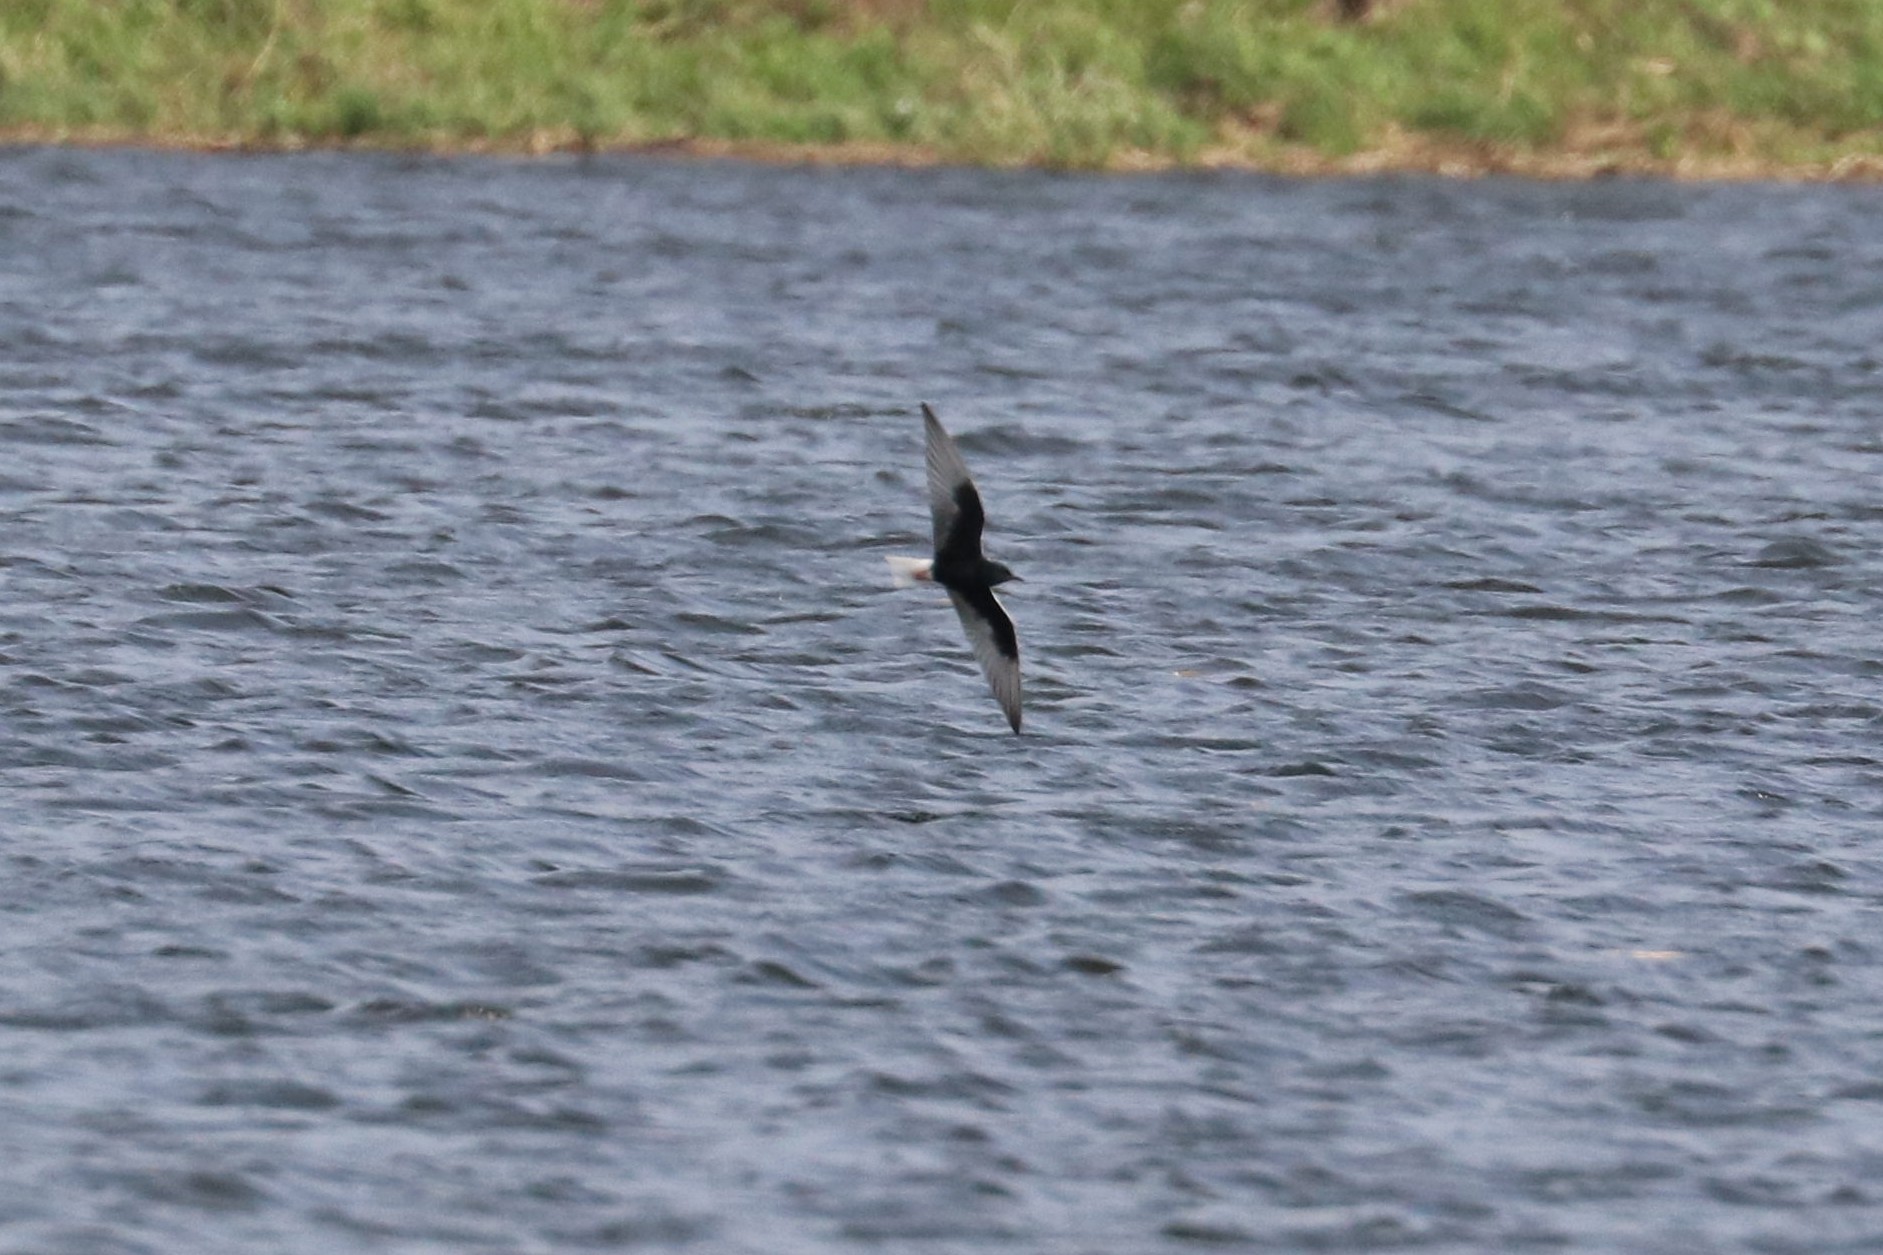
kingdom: Animalia
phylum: Chordata
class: Aves
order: Charadriiformes
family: Laridae
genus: Chlidonias
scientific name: Chlidonias leucopterus
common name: White-winged tern
